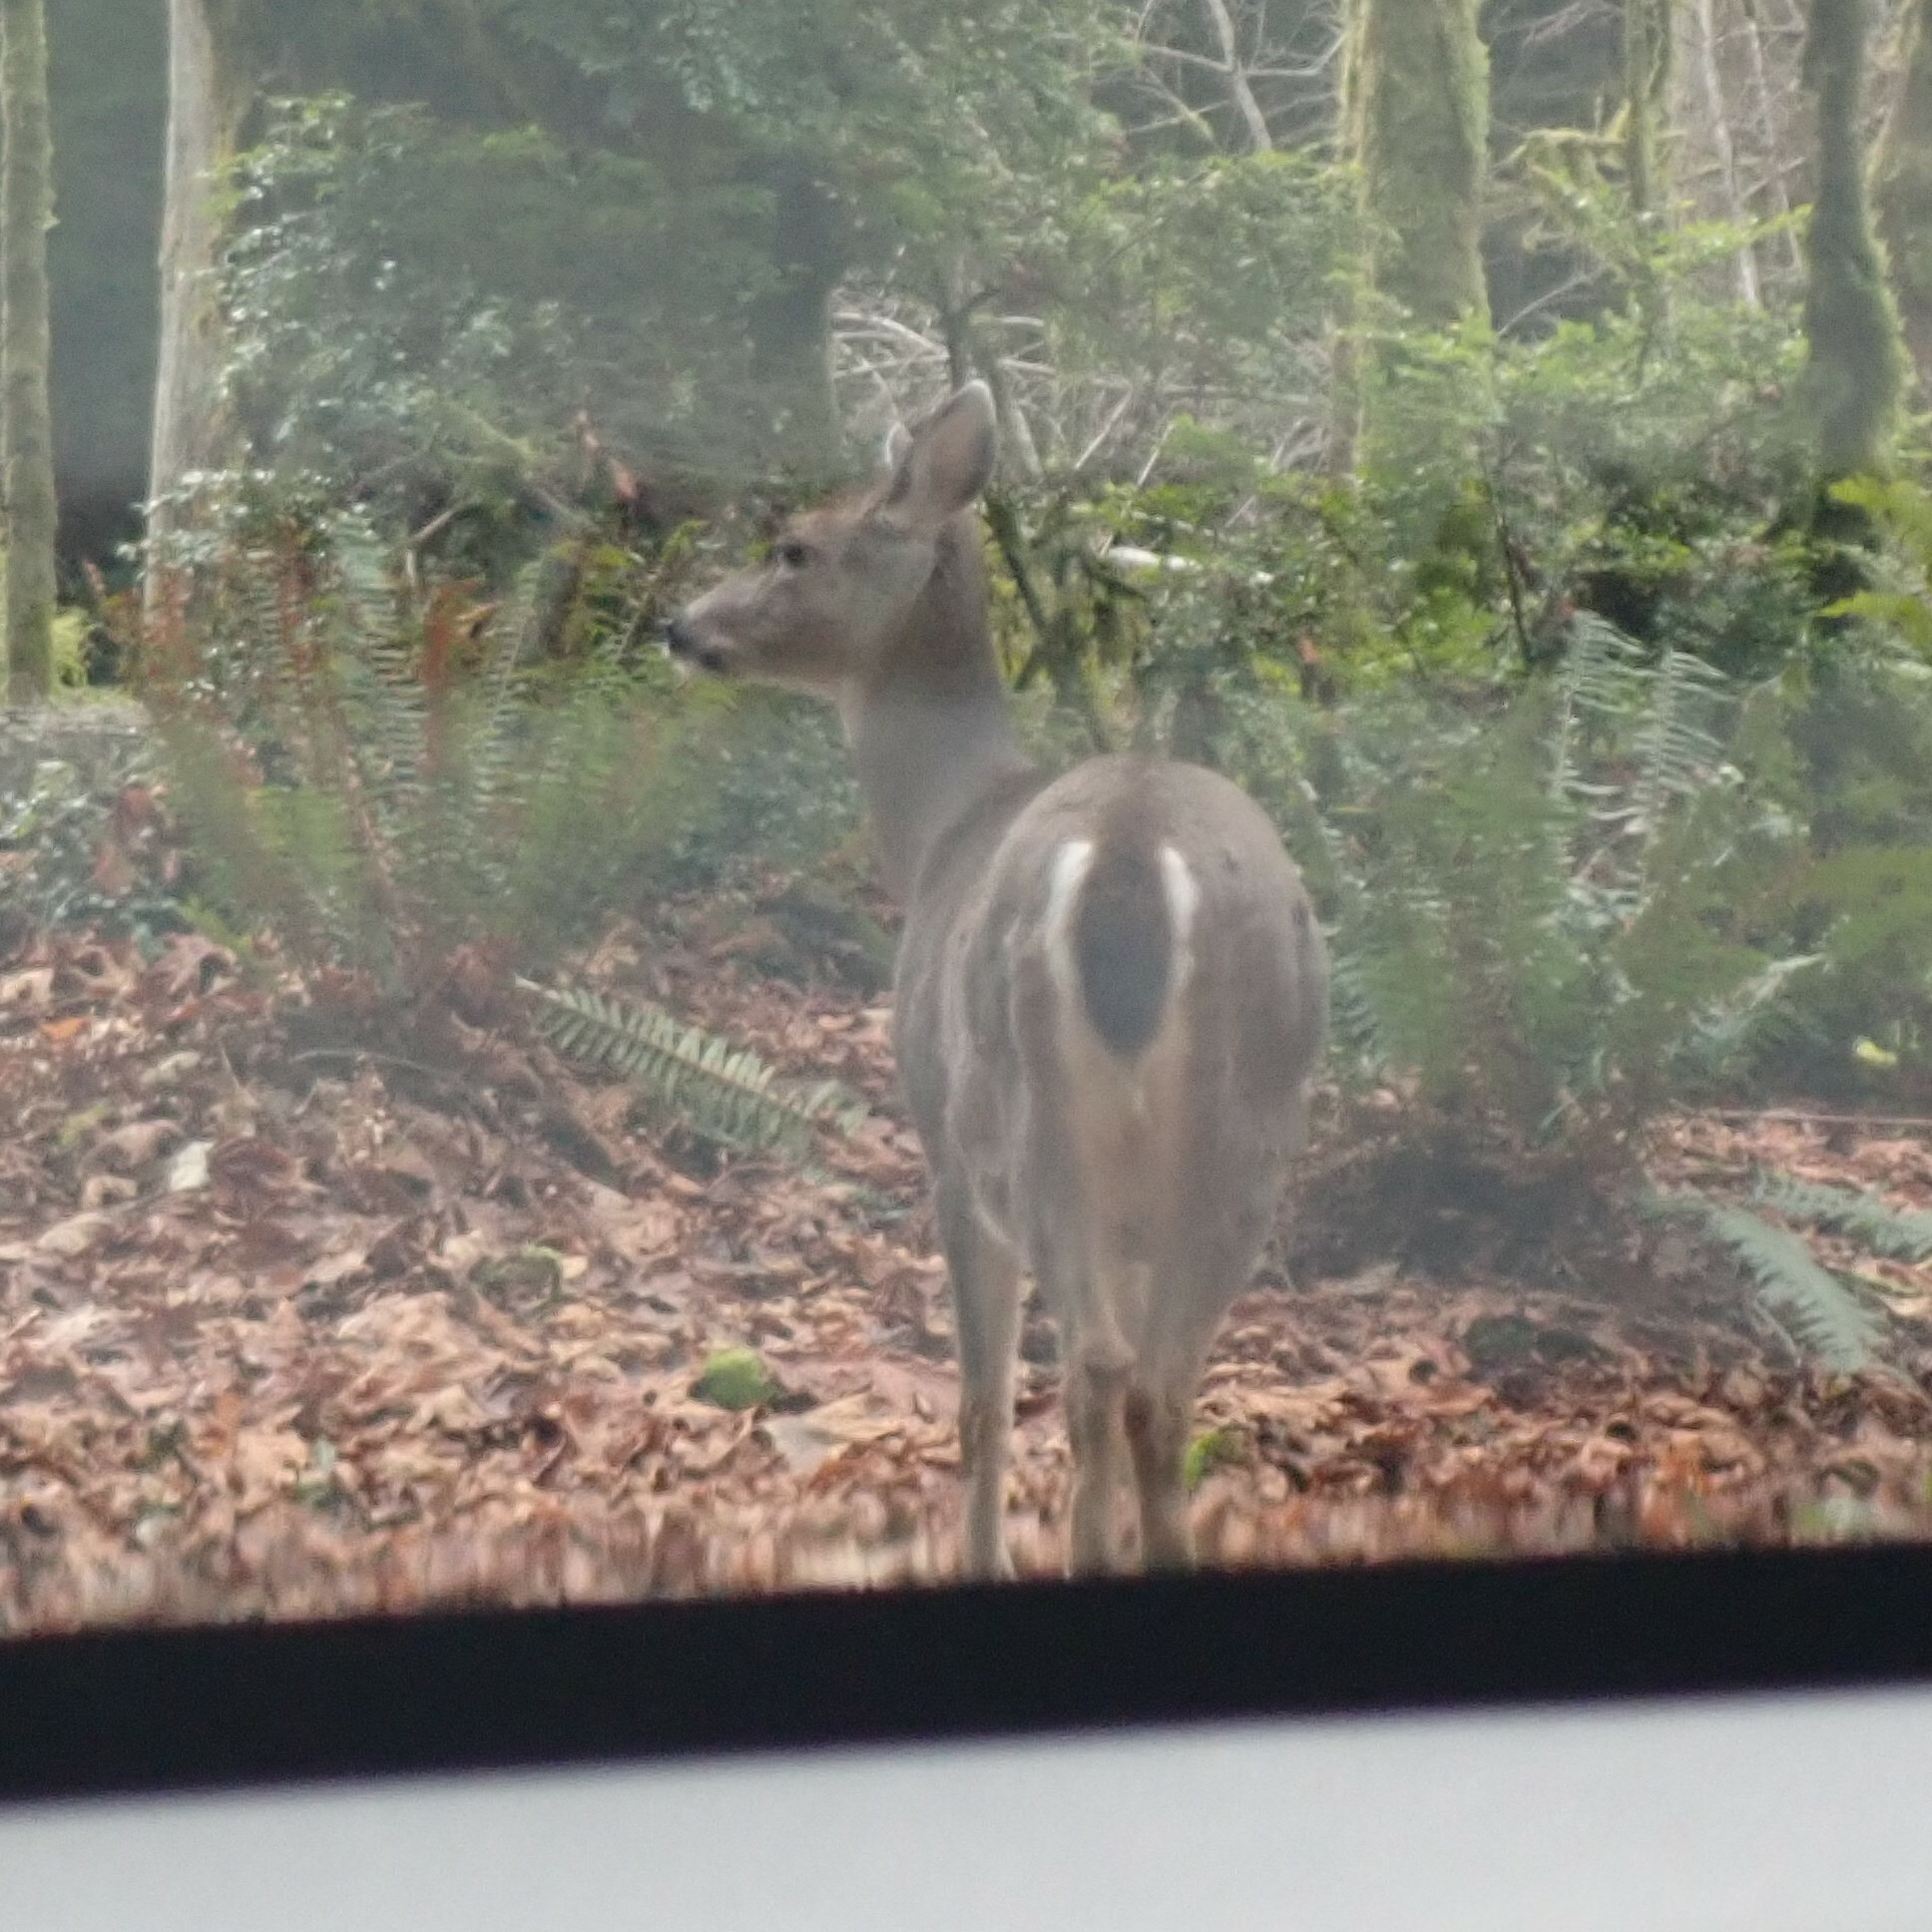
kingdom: Animalia
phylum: Chordata
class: Mammalia
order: Artiodactyla
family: Cervidae
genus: Odocoileus
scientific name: Odocoileus hemionus
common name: Mule deer
